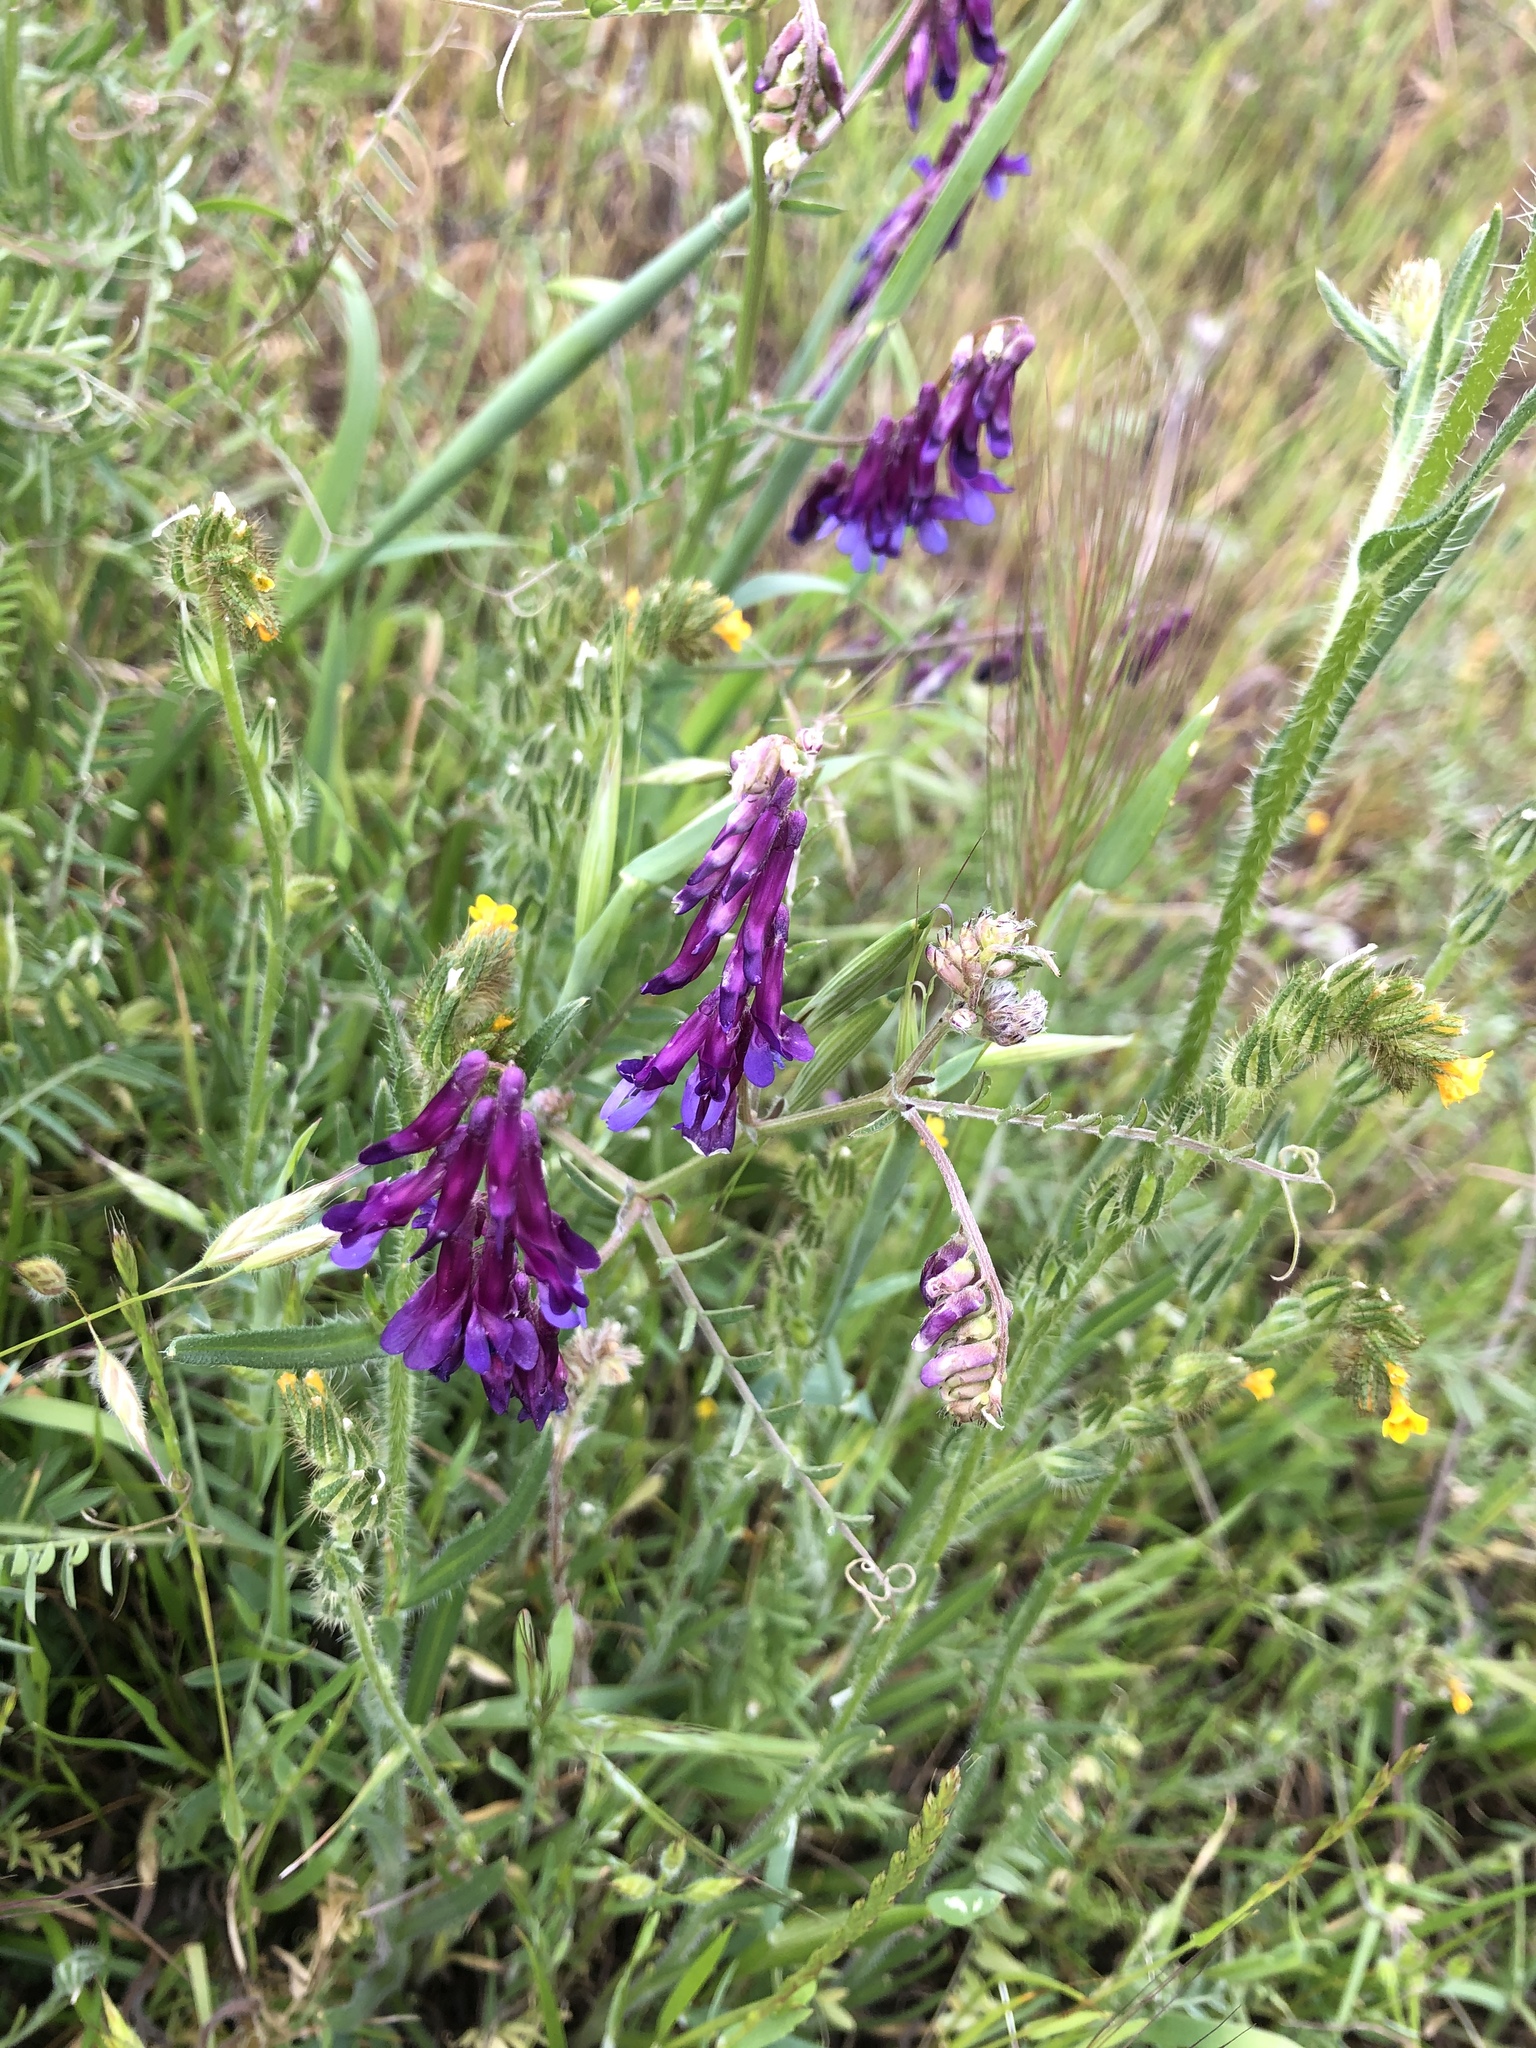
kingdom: Plantae
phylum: Tracheophyta
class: Magnoliopsida
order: Fabales
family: Fabaceae
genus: Vicia
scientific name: Vicia villosa
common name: Fodder vetch
